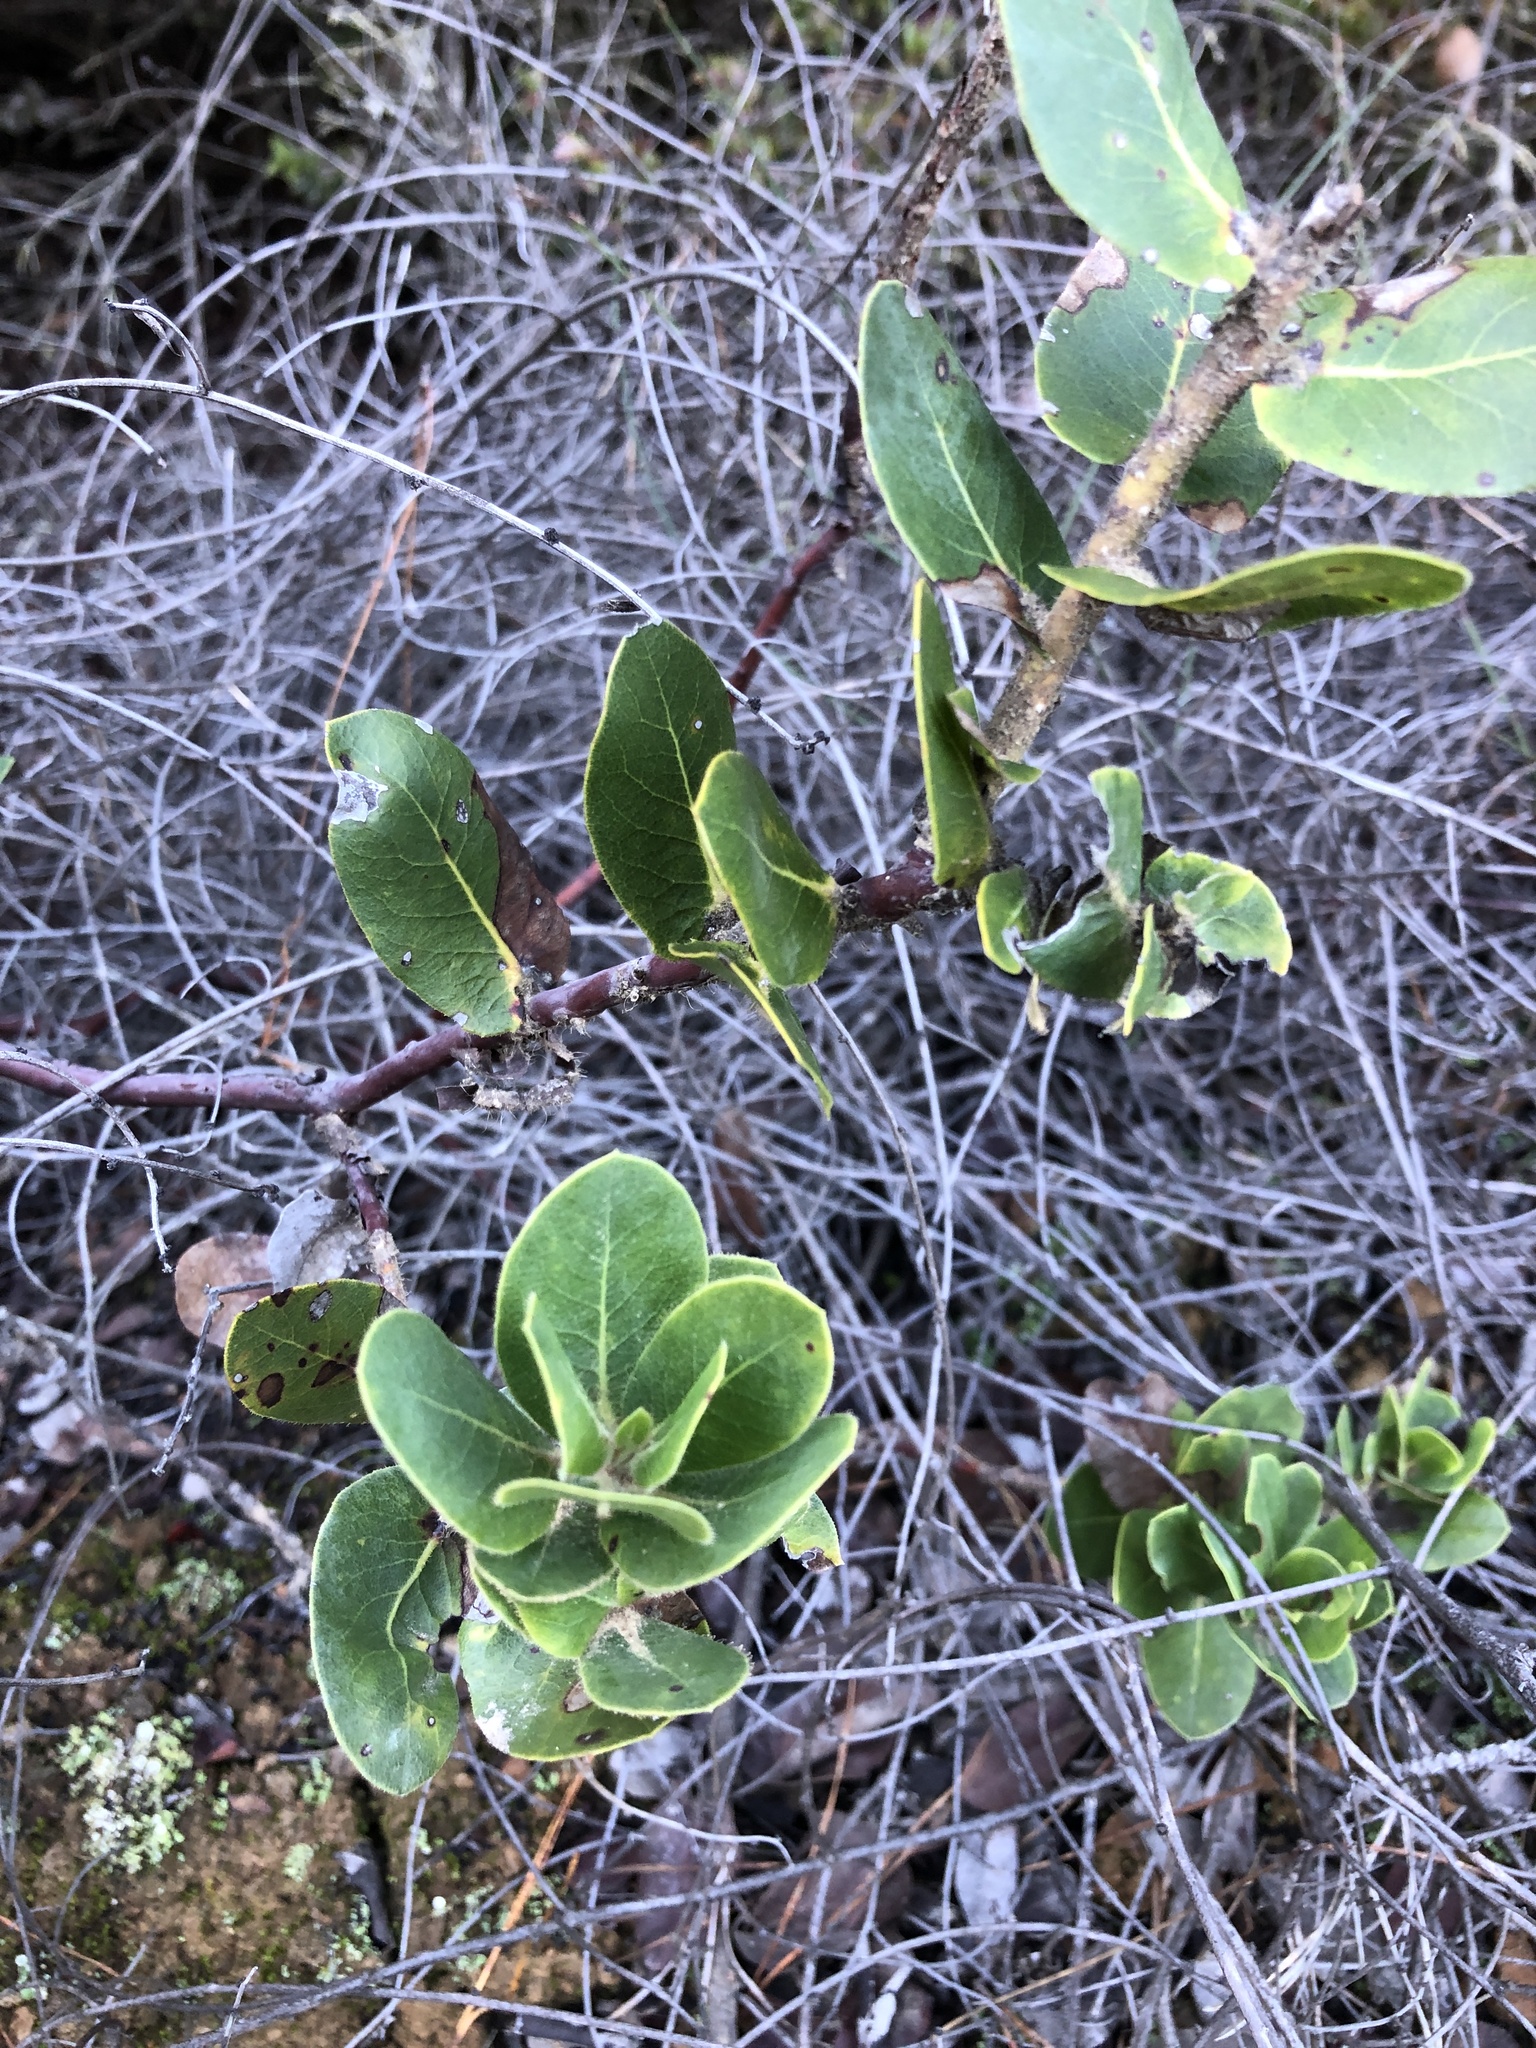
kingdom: Plantae
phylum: Tracheophyta
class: Magnoliopsida
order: Ericales
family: Ericaceae
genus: Arctostaphylos
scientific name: Arctostaphylos montaraensis
